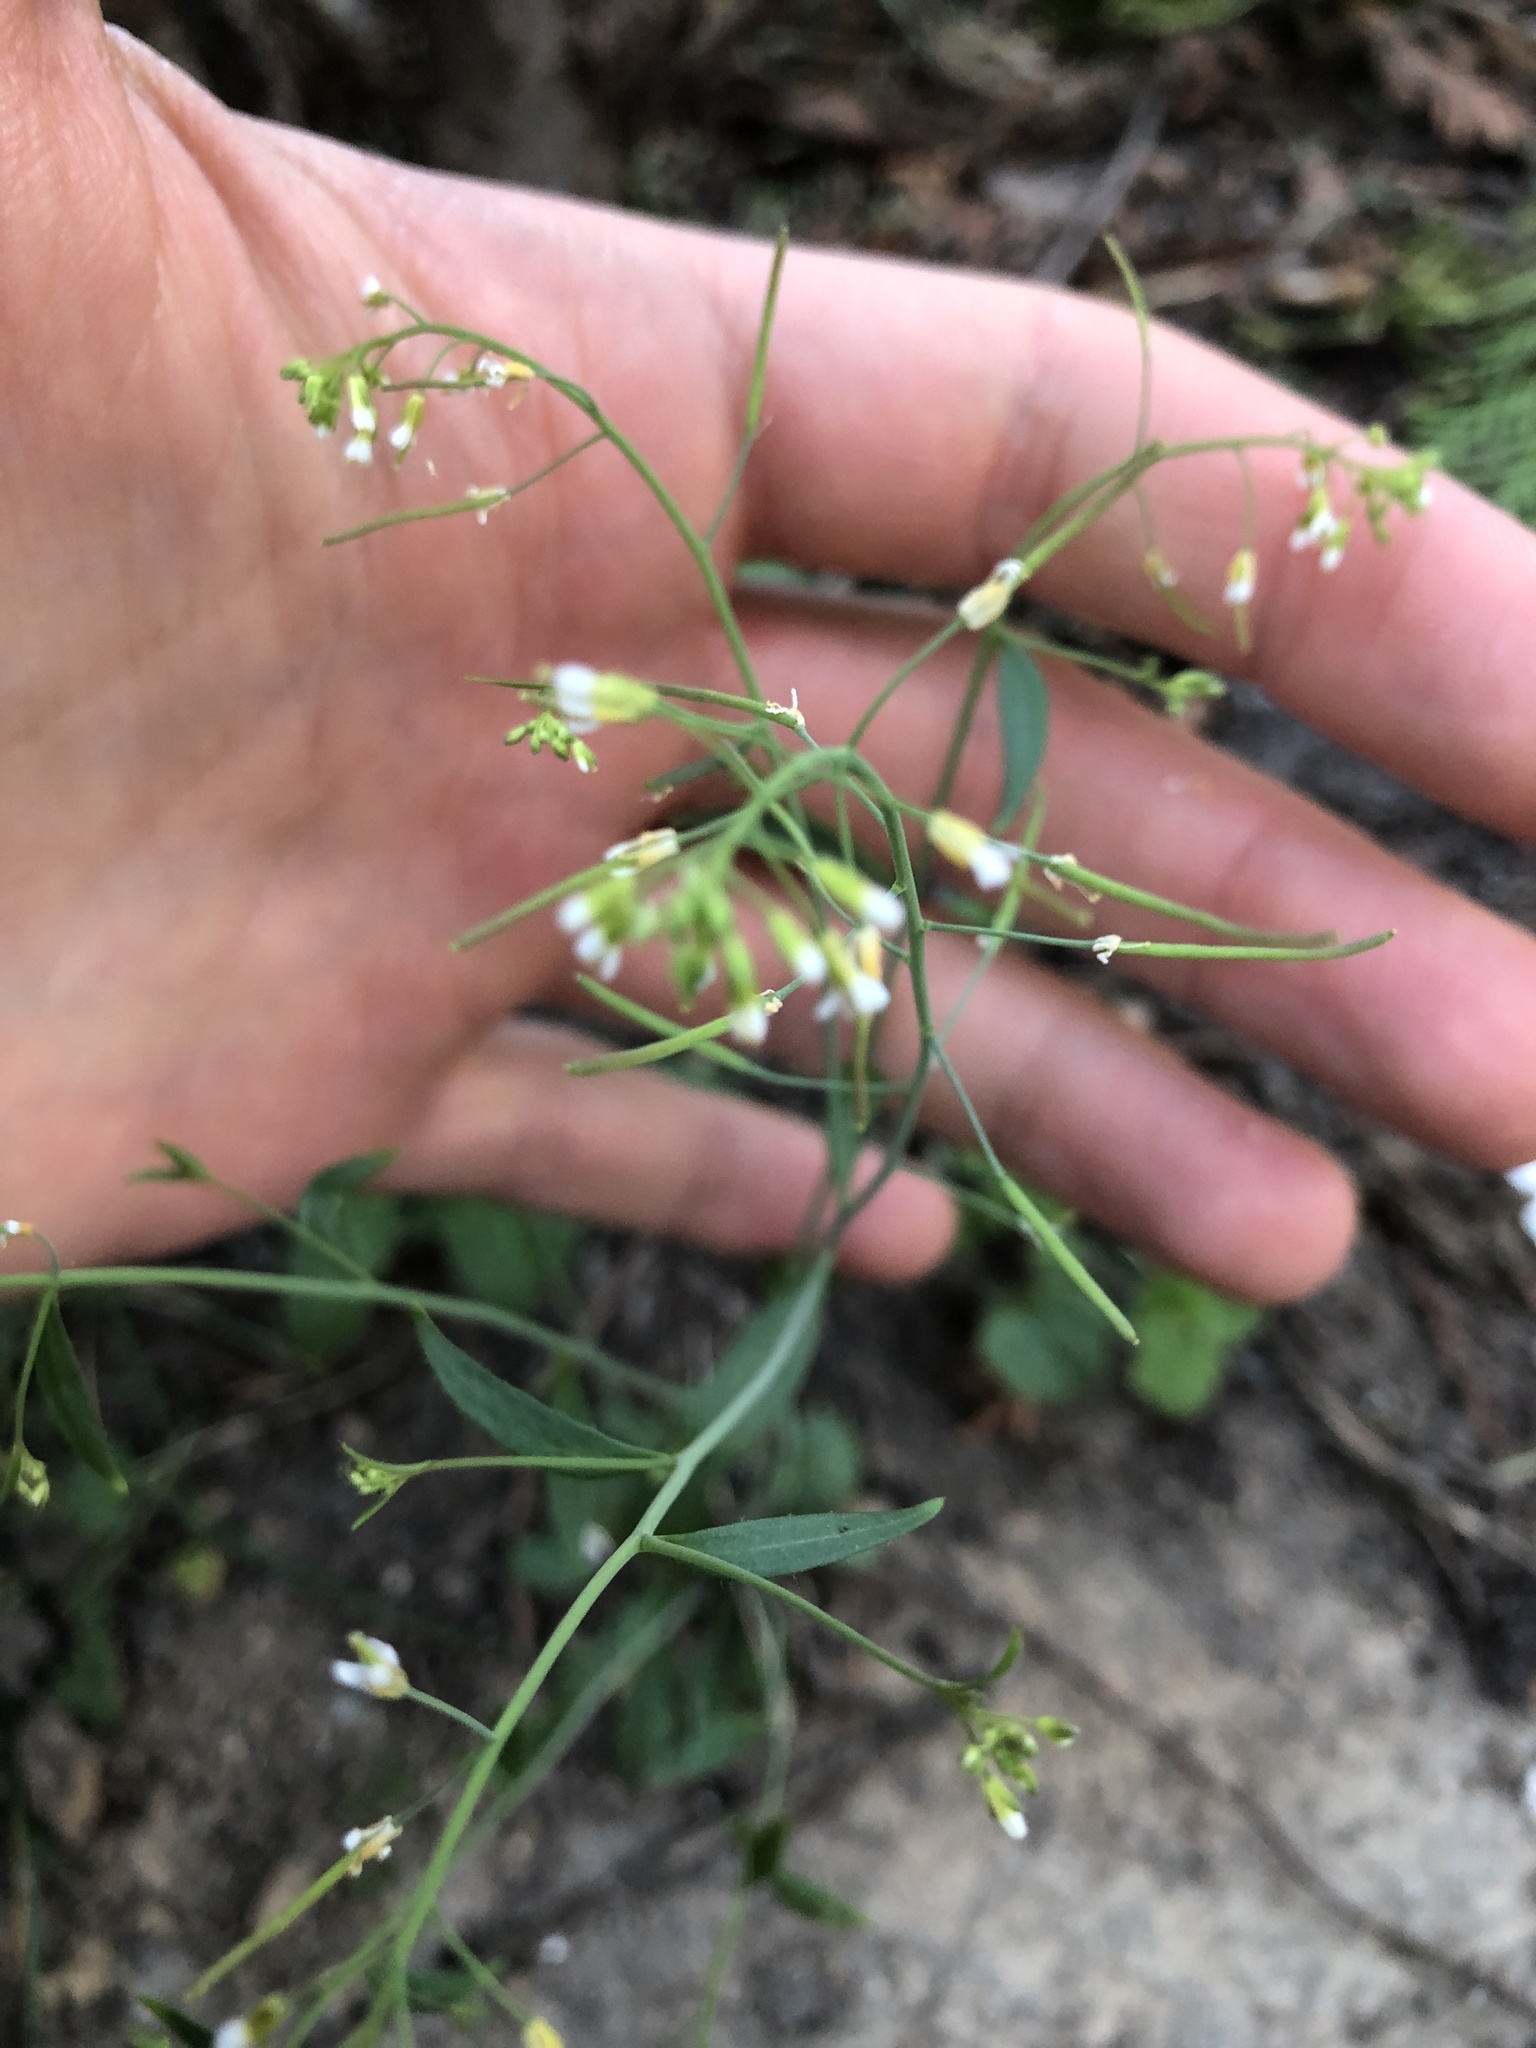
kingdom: Plantae
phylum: Tracheophyta
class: Magnoliopsida
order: Brassicales
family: Brassicaceae
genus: Arabidopsis
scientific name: Arabidopsis thaliana
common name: Thale cress
